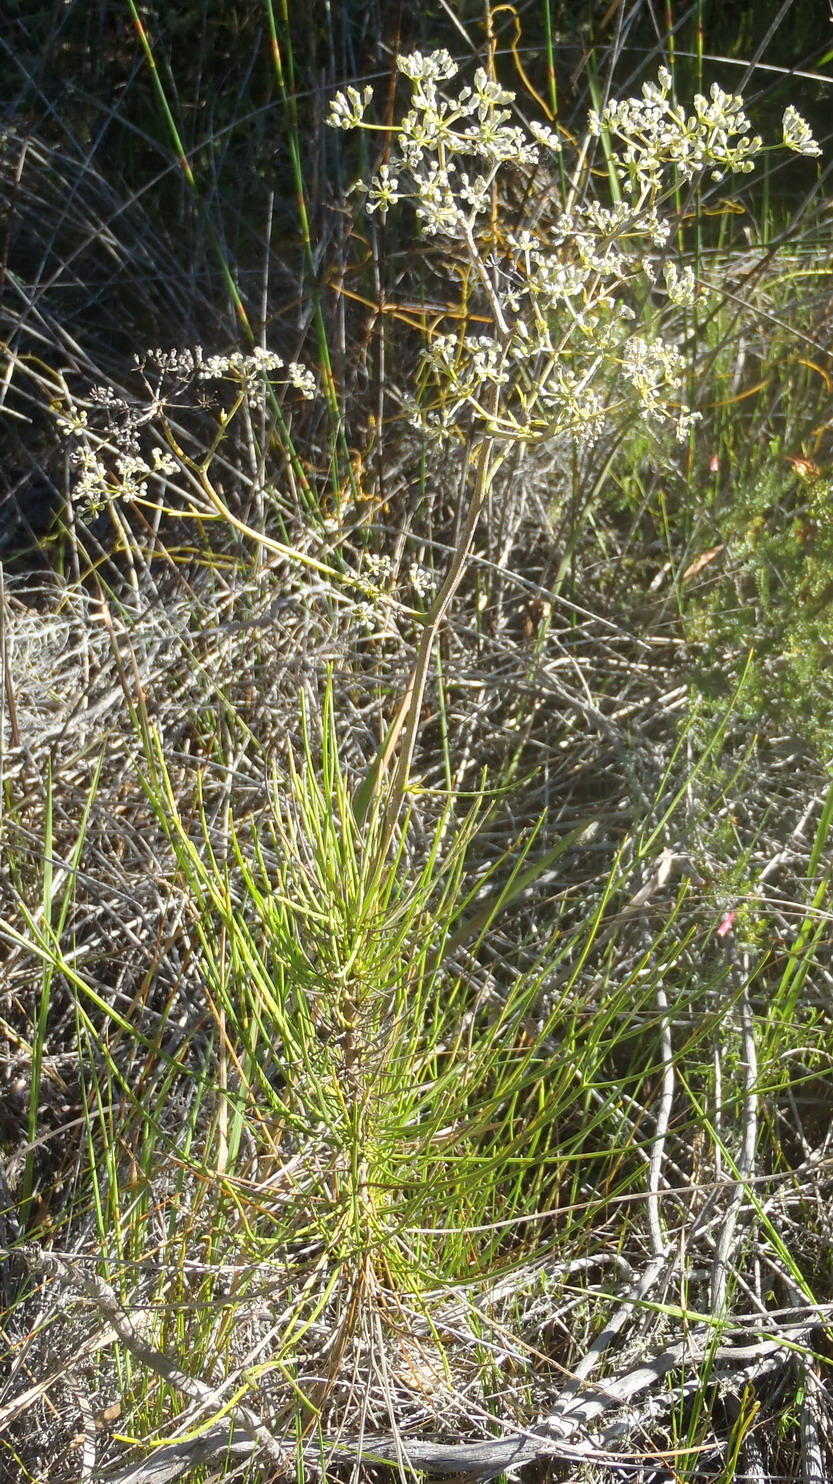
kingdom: Plantae
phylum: Tracheophyta
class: Magnoliopsida
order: Apiales
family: Apiaceae
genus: Anginon
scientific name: Anginon difforme
